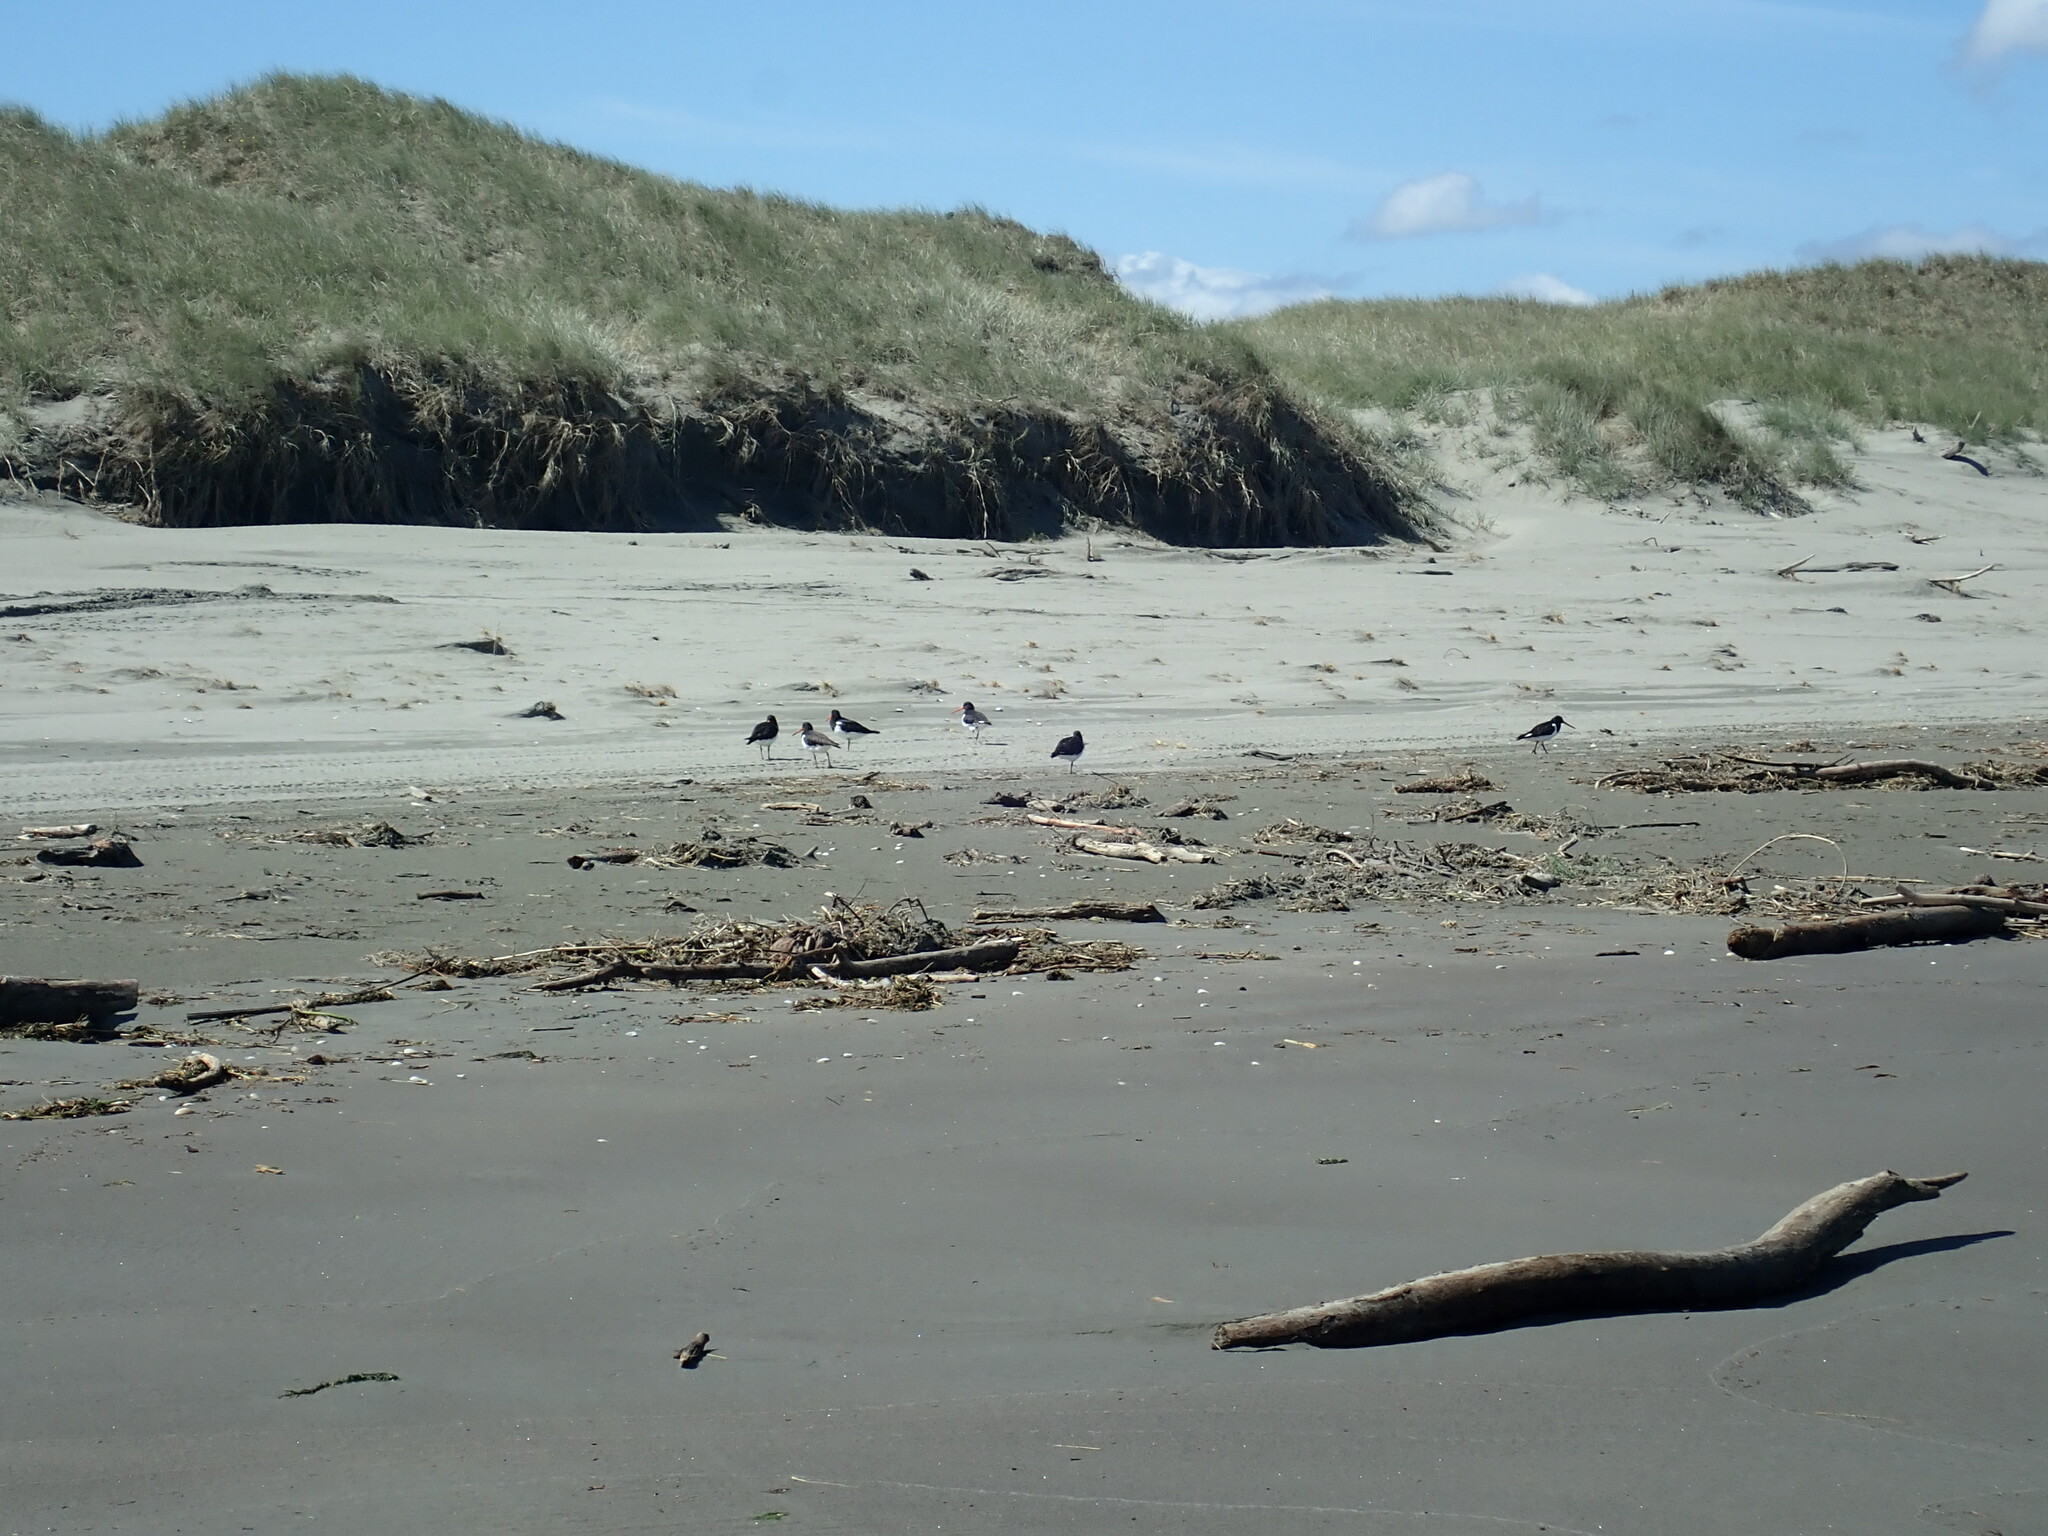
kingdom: Animalia
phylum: Chordata
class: Aves
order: Charadriiformes
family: Haematopodidae
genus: Haematopus
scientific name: Haematopus finschi
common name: South island oystercatcher
